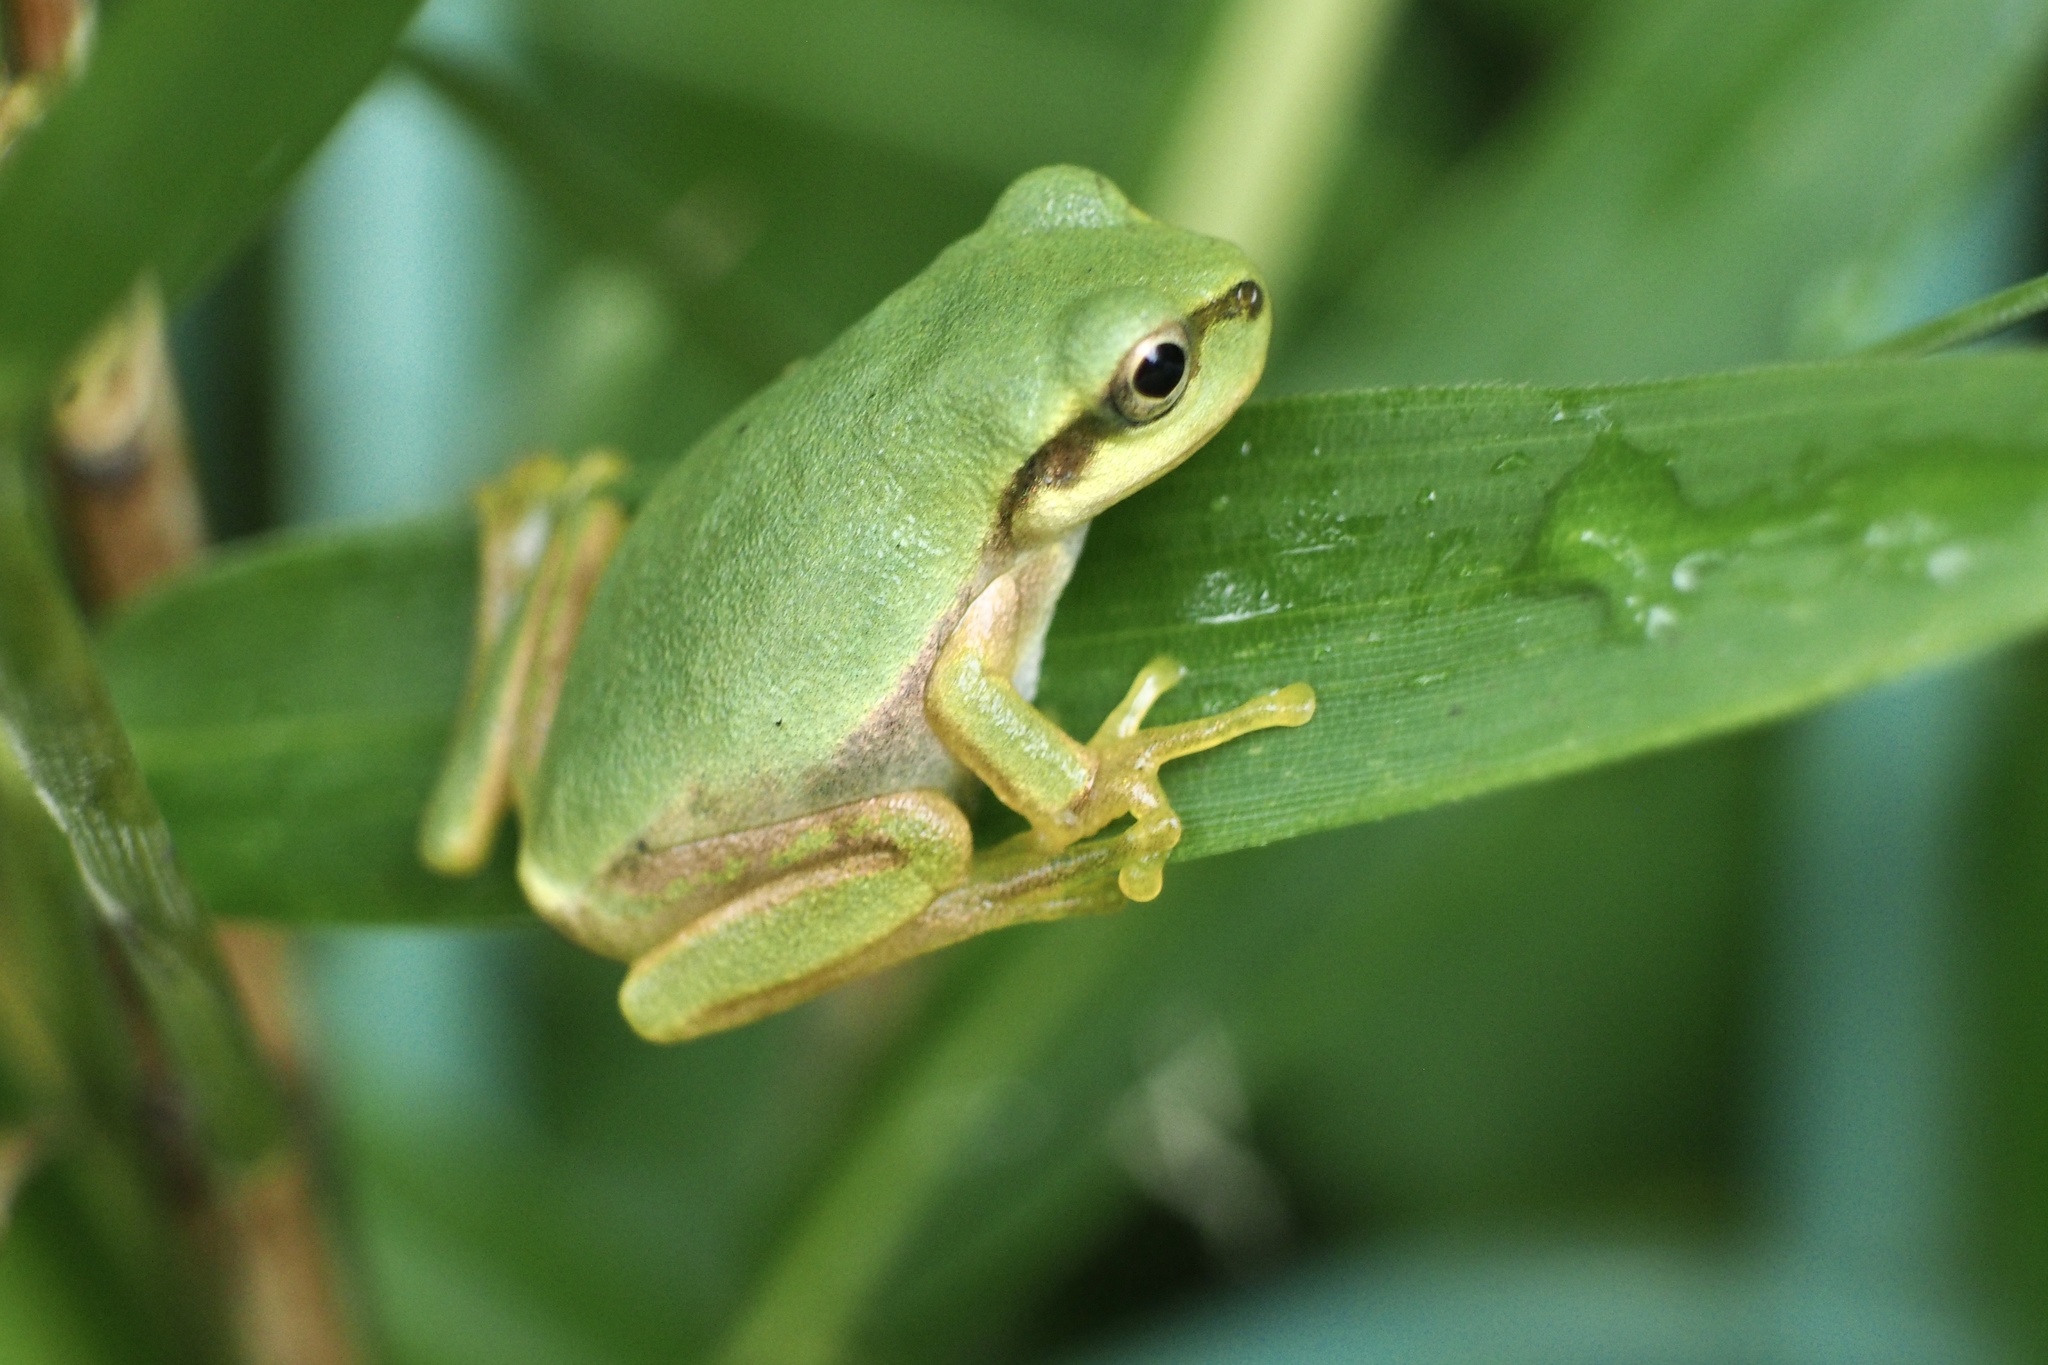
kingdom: Animalia
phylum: Chordata
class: Amphibia
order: Anura
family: Hylidae
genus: Dryophytes
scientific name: Dryophytes japonicus
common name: Japanese treefrog
